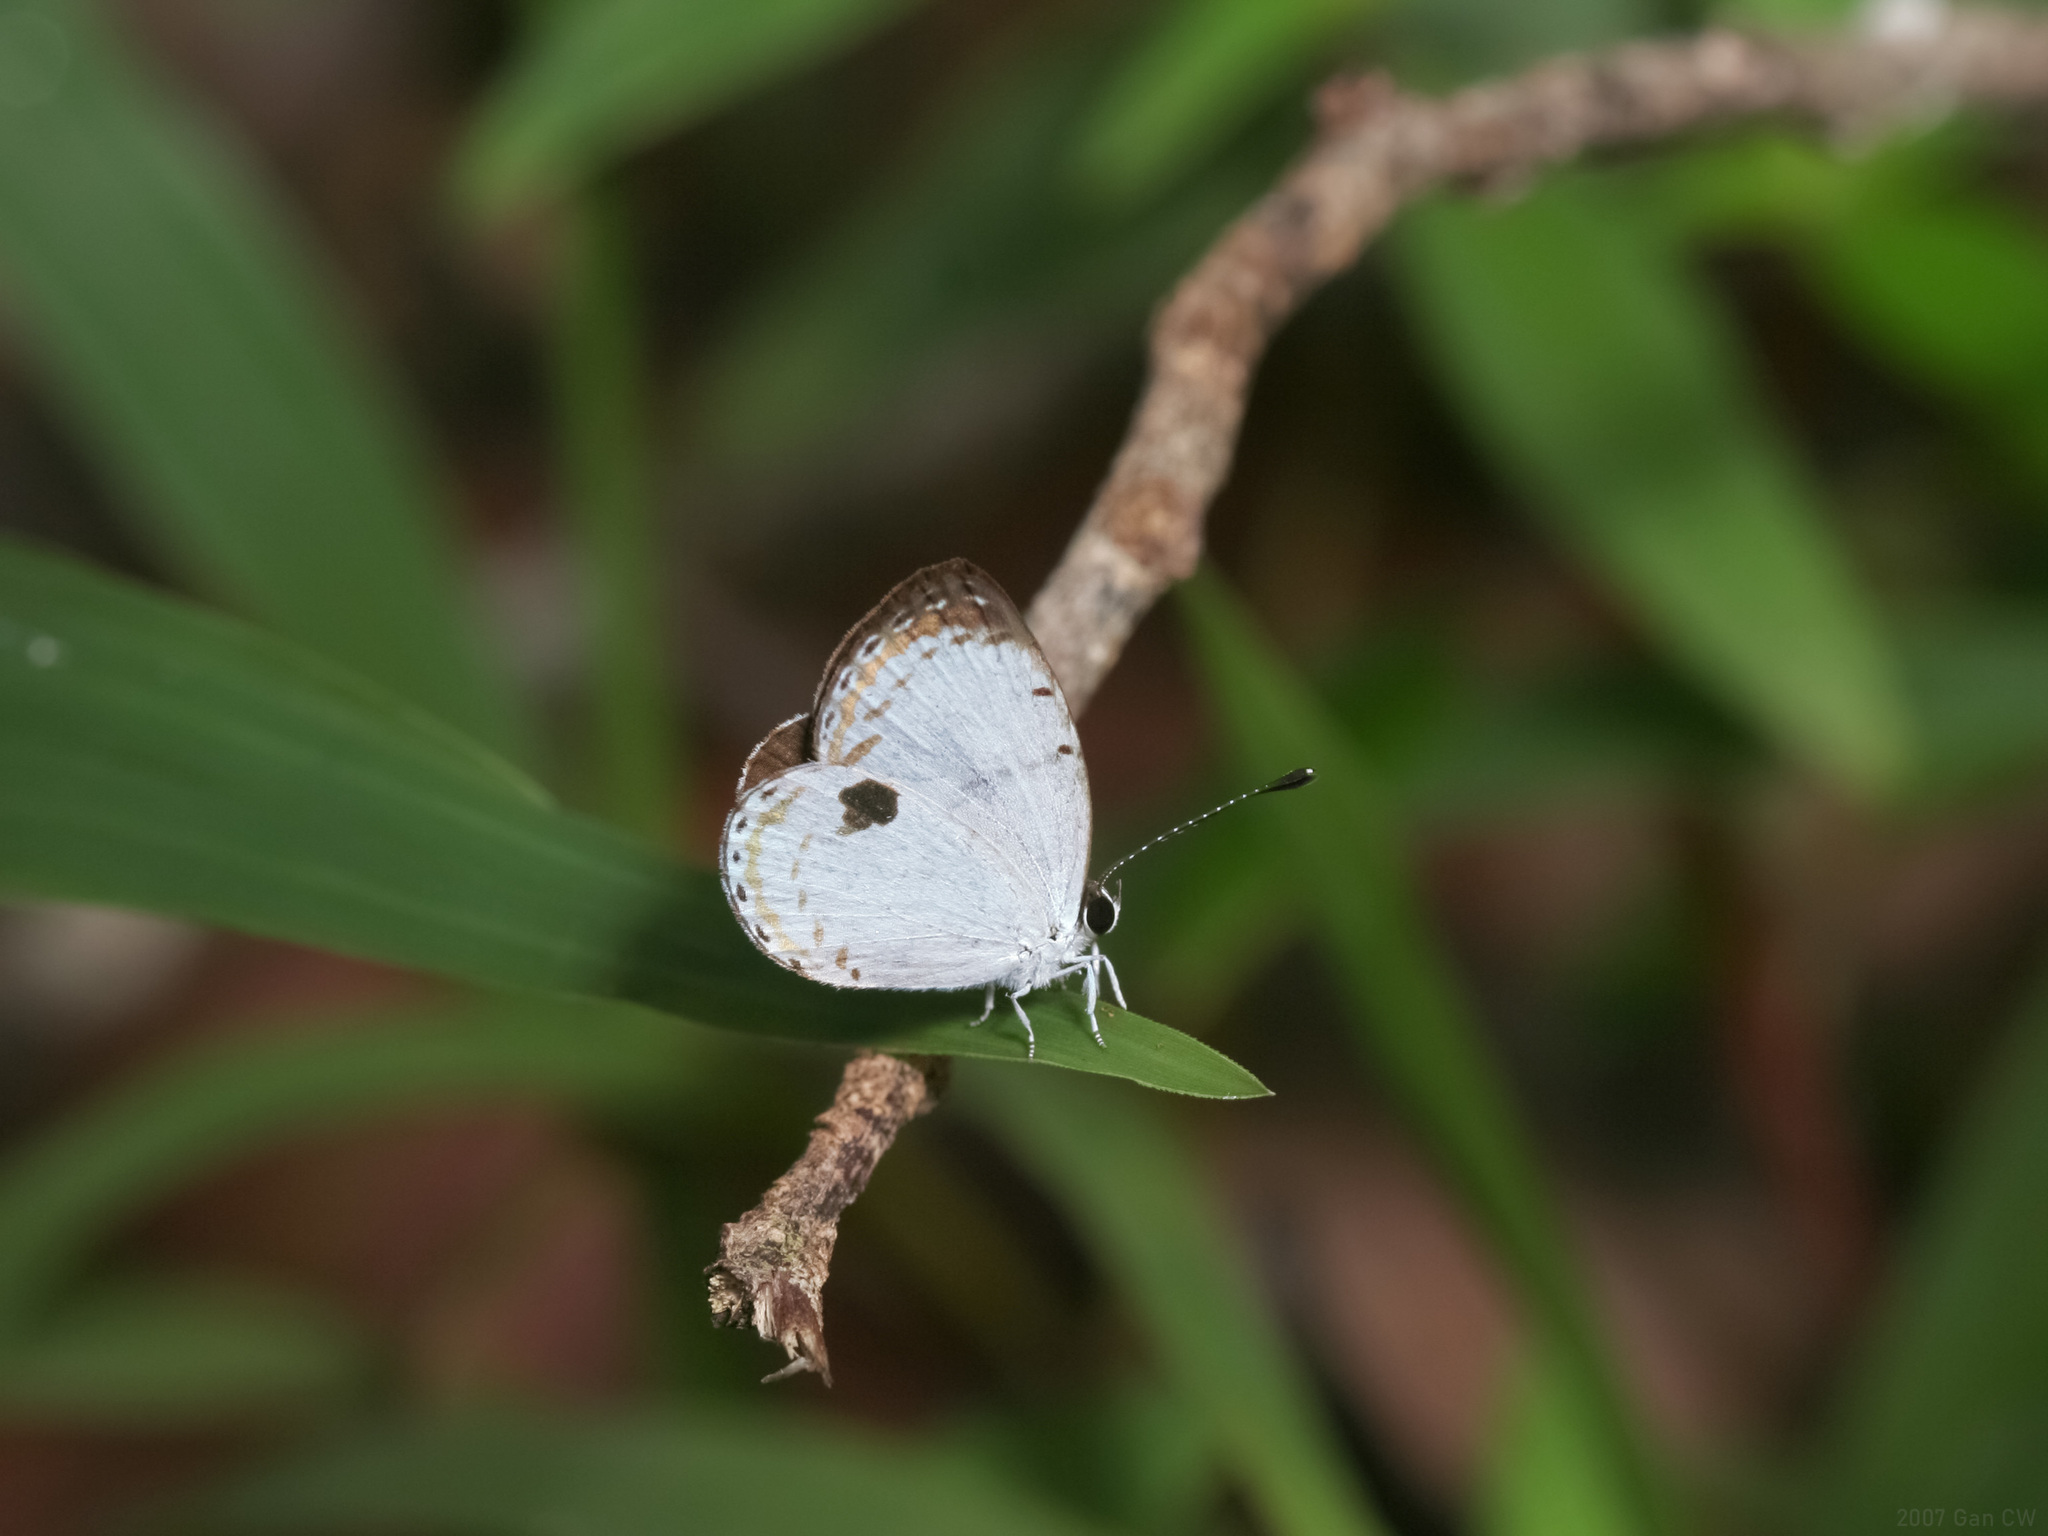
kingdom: Animalia
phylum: Arthropoda
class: Insecta
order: Lepidoptera
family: Lycaenidae
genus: Pithecops
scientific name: Pithecops corvus
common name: Forest quaker
